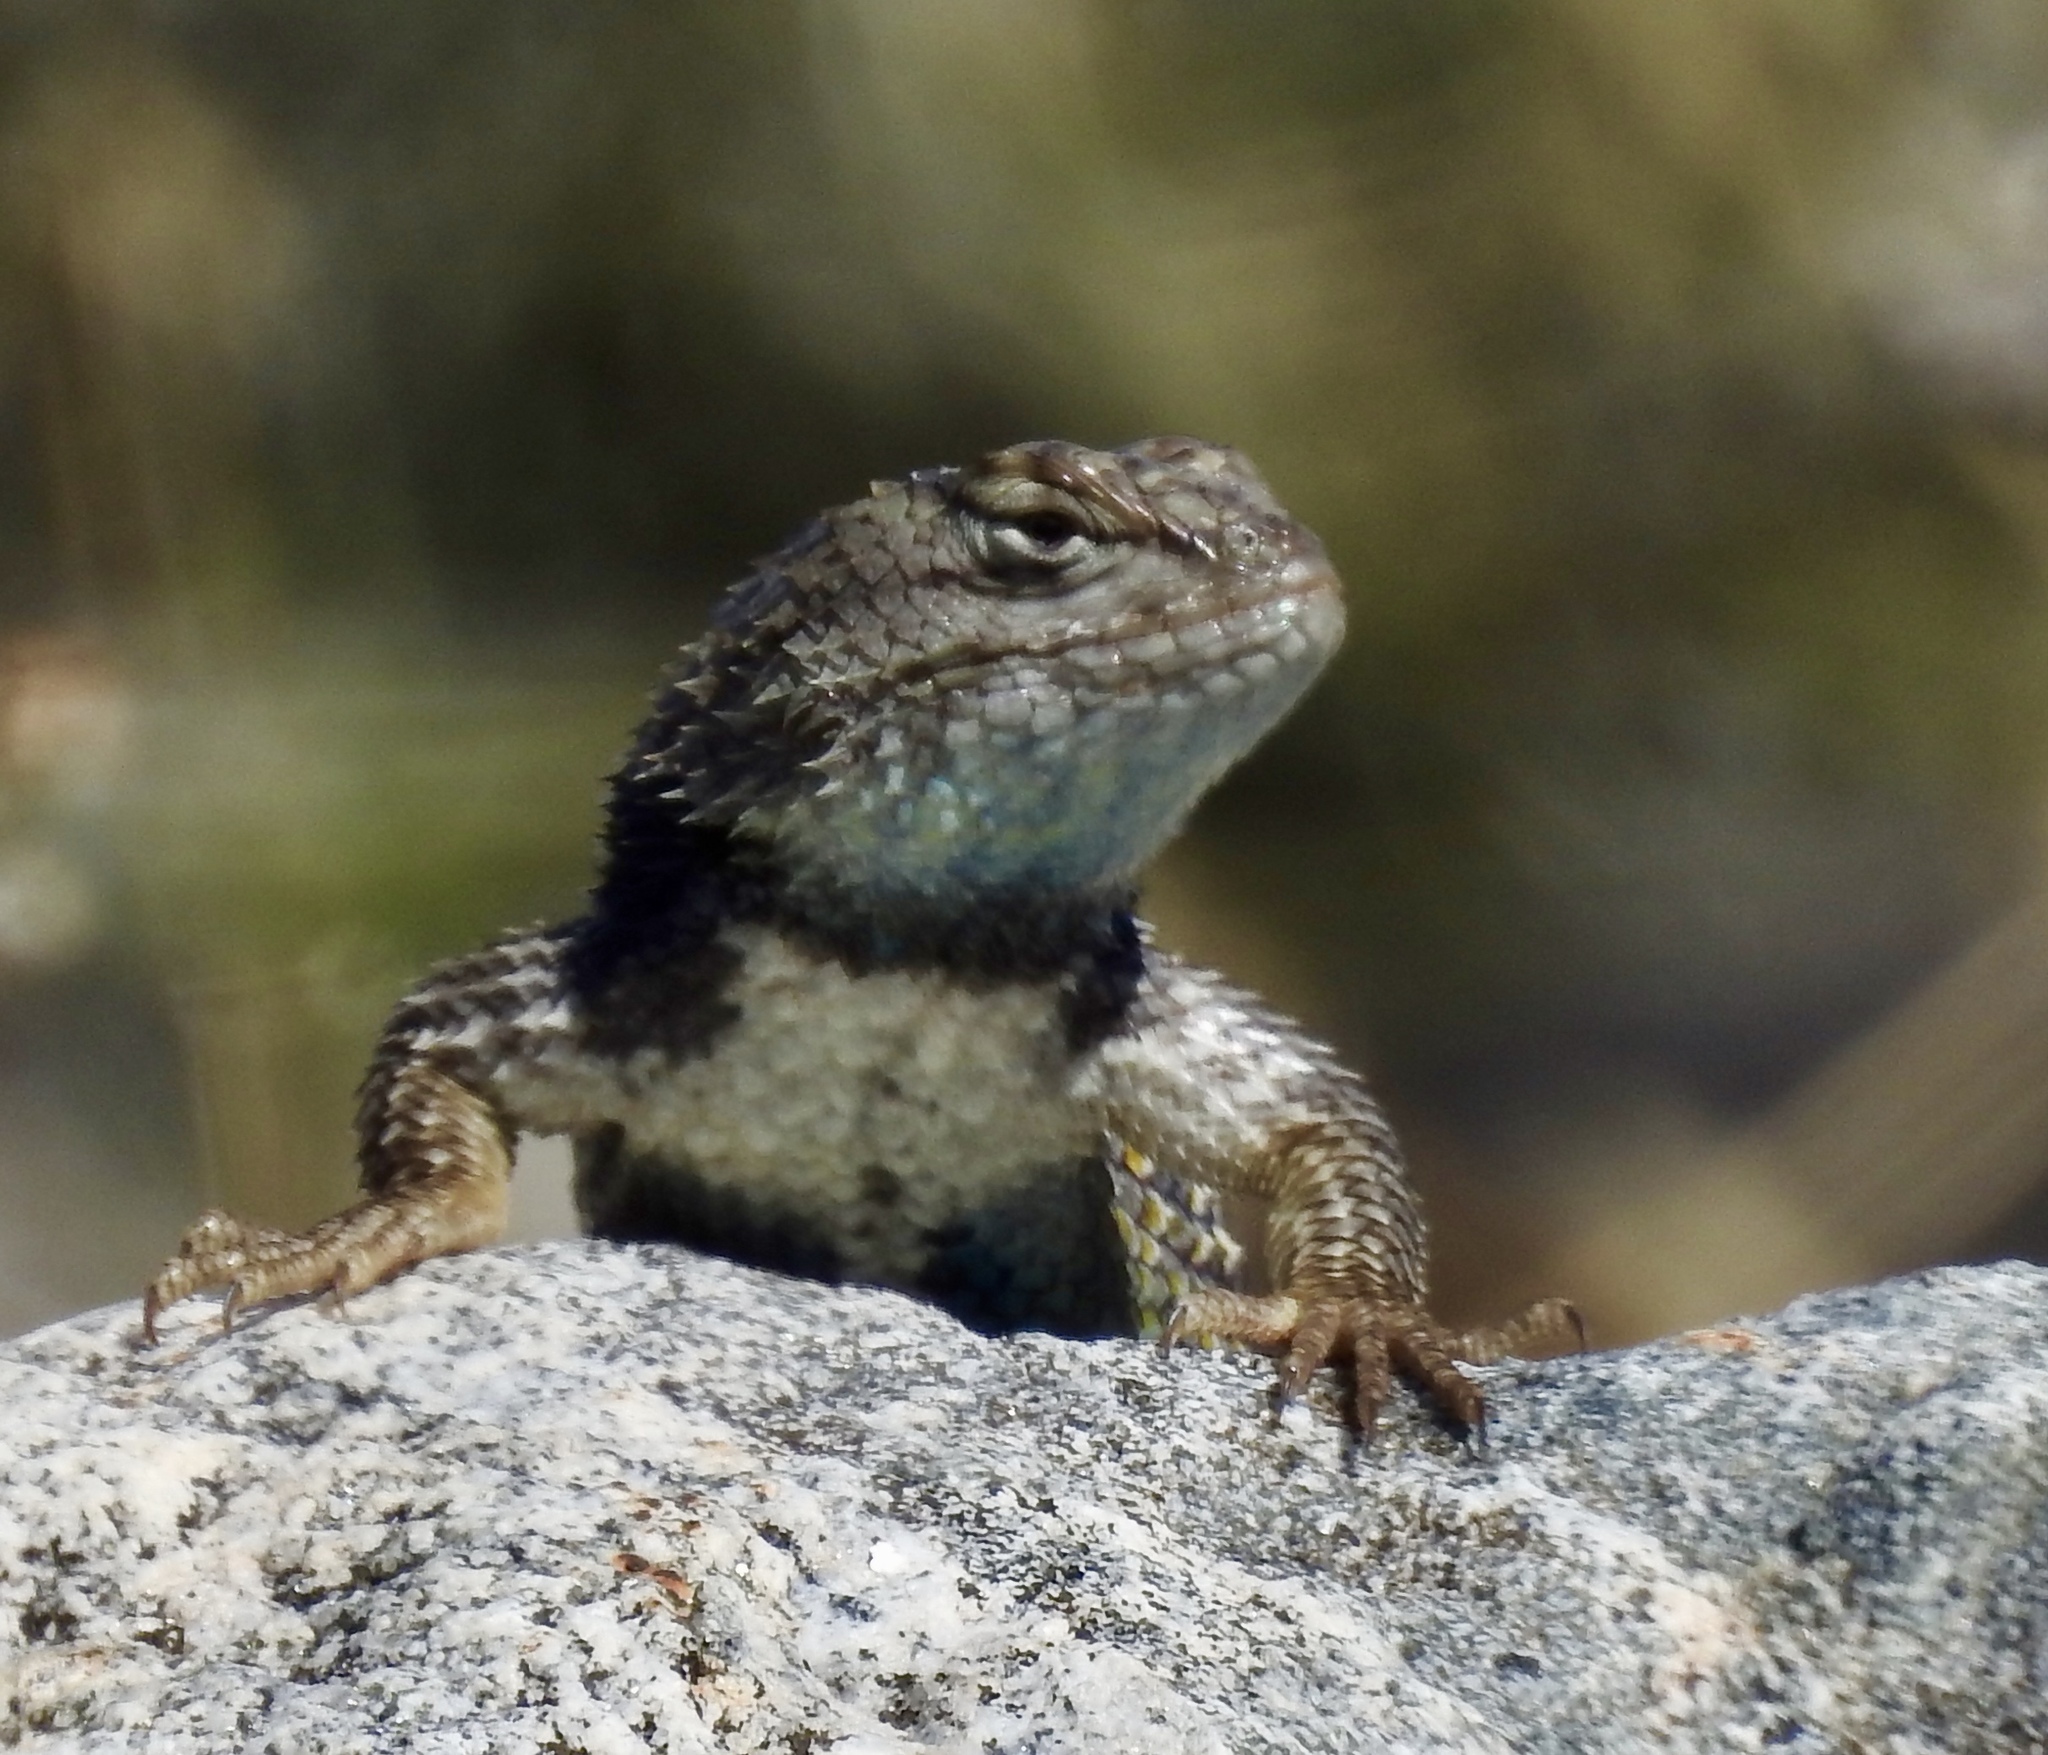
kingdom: Animalia
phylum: Chordata
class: Squamata
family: Phrynosomatidae
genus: Sceloporus
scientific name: Sceloporus magister
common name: Desert spiny lizard
